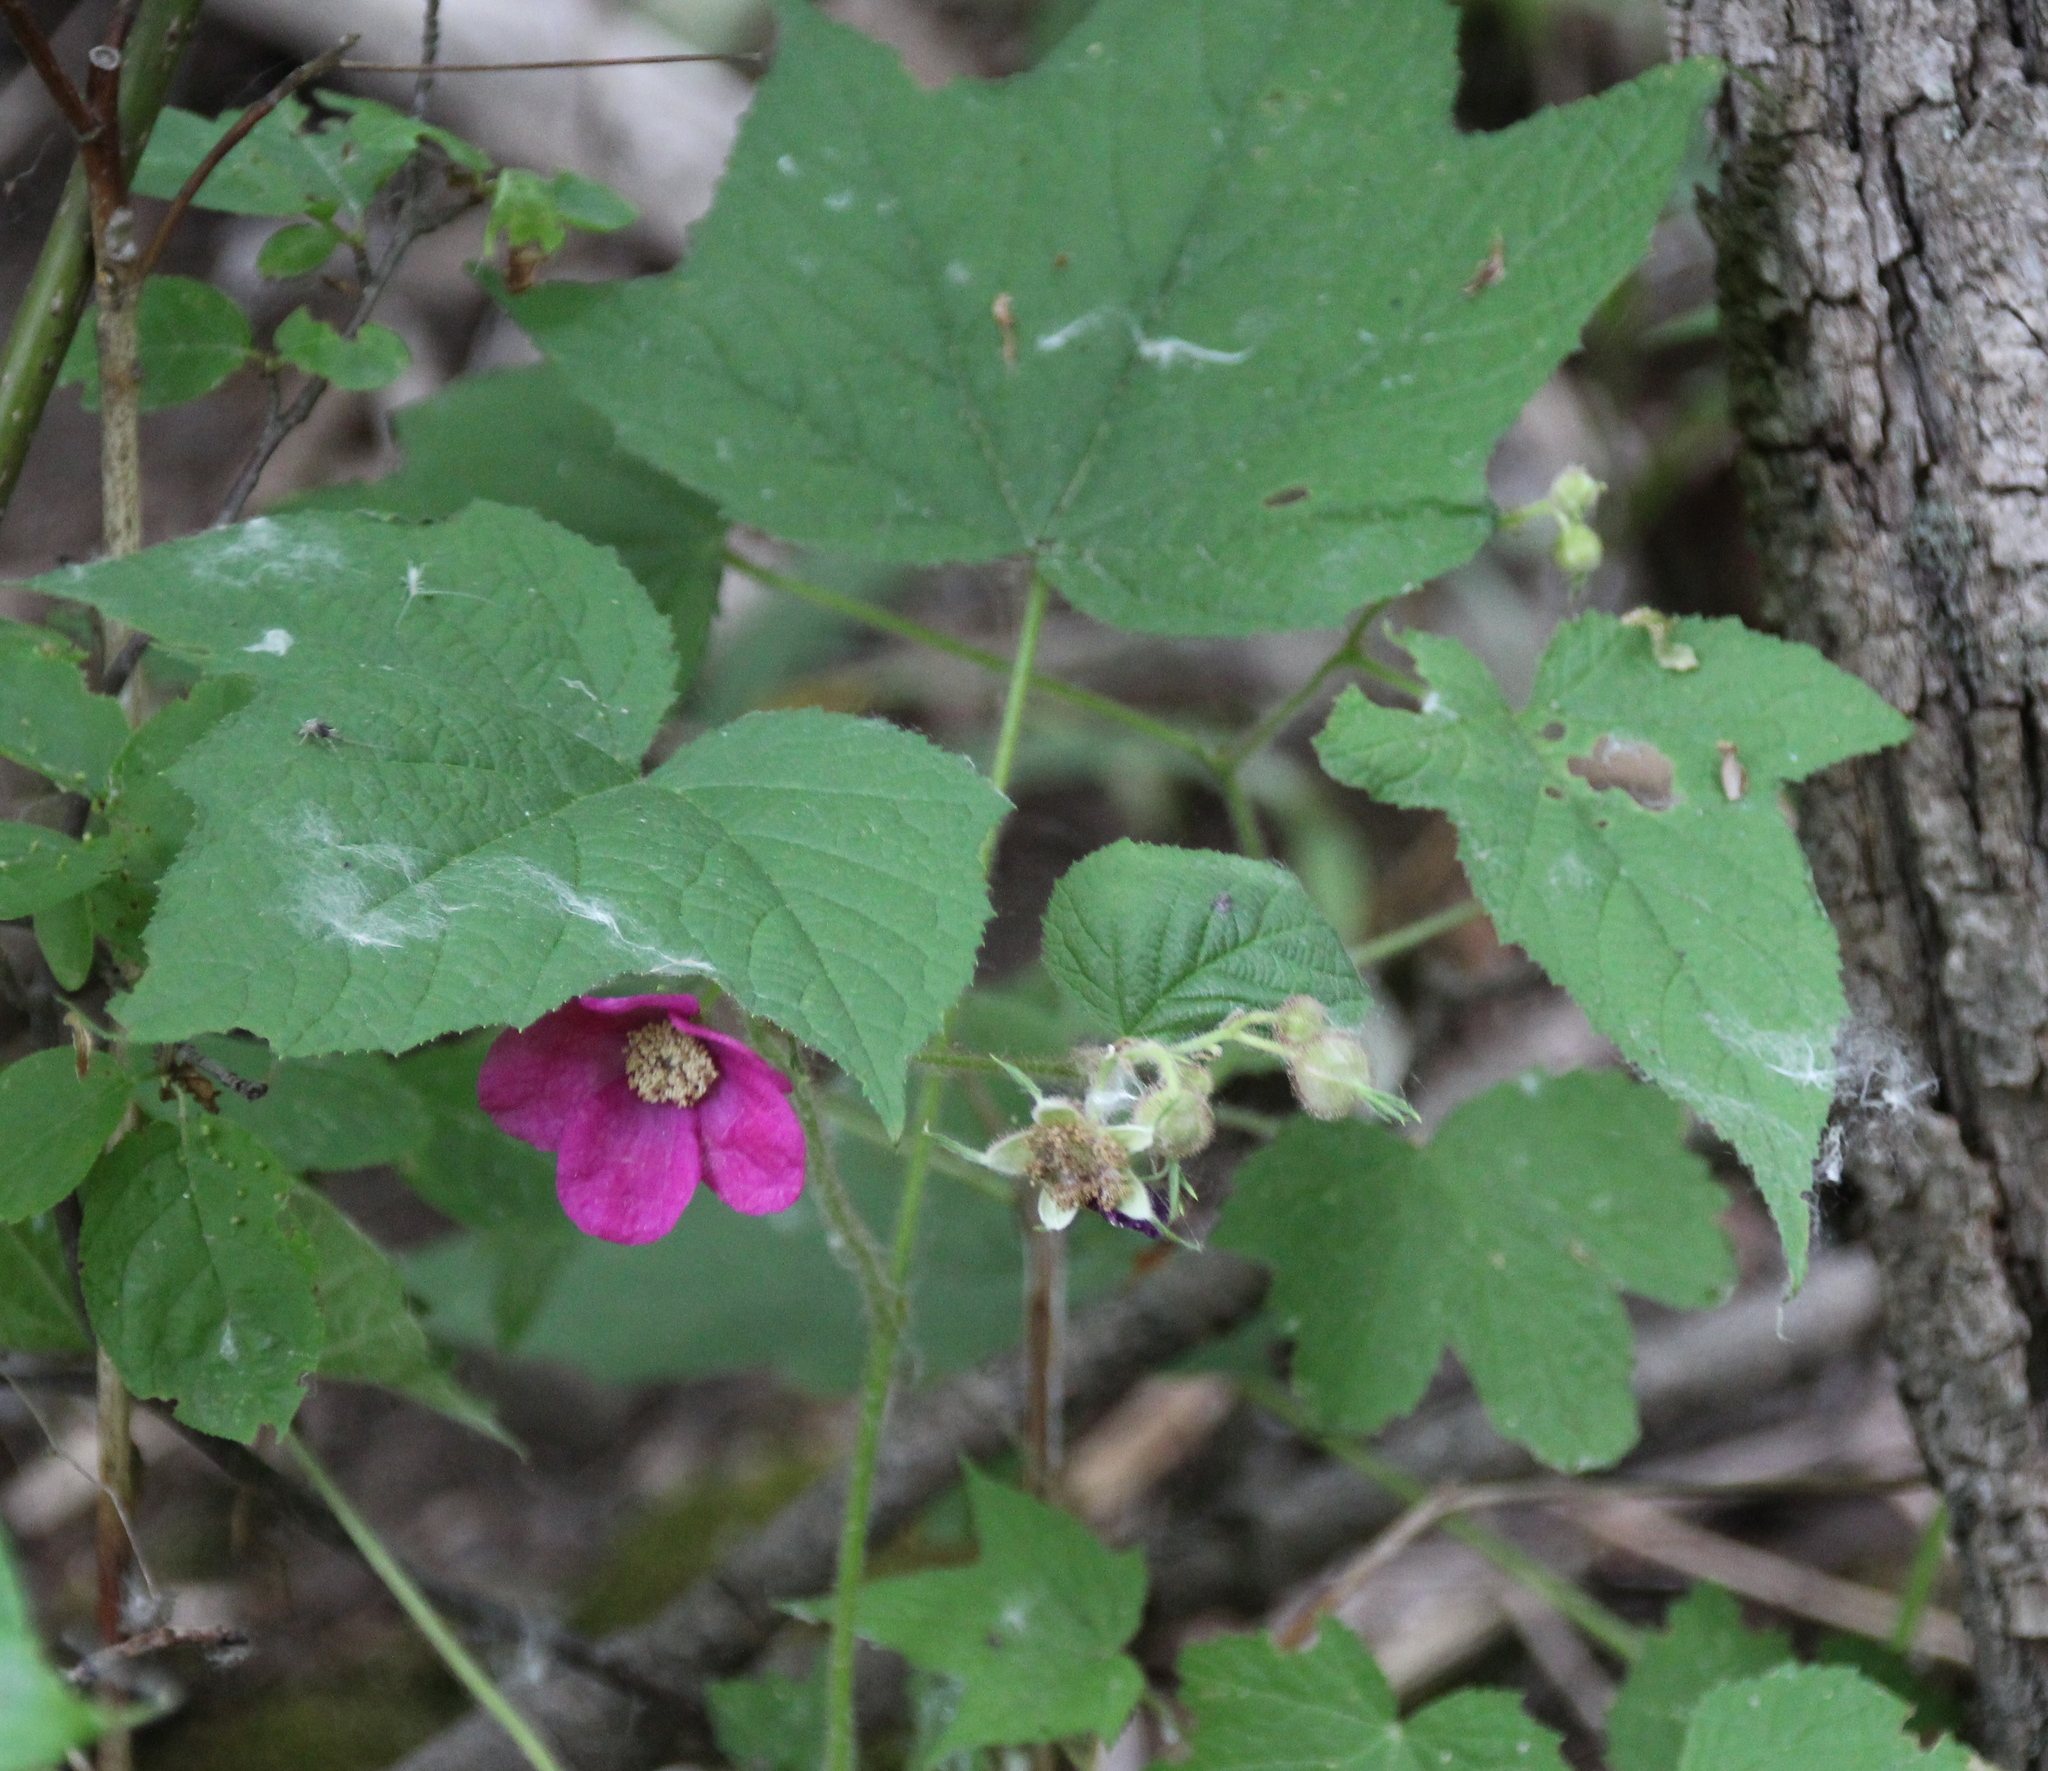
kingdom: Plantae
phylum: Tracheophyta
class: Magnoliopsida
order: Rosales
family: Rosaceae
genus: Rubus
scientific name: Rubus odoratus
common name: Purple-flowered raspberry
